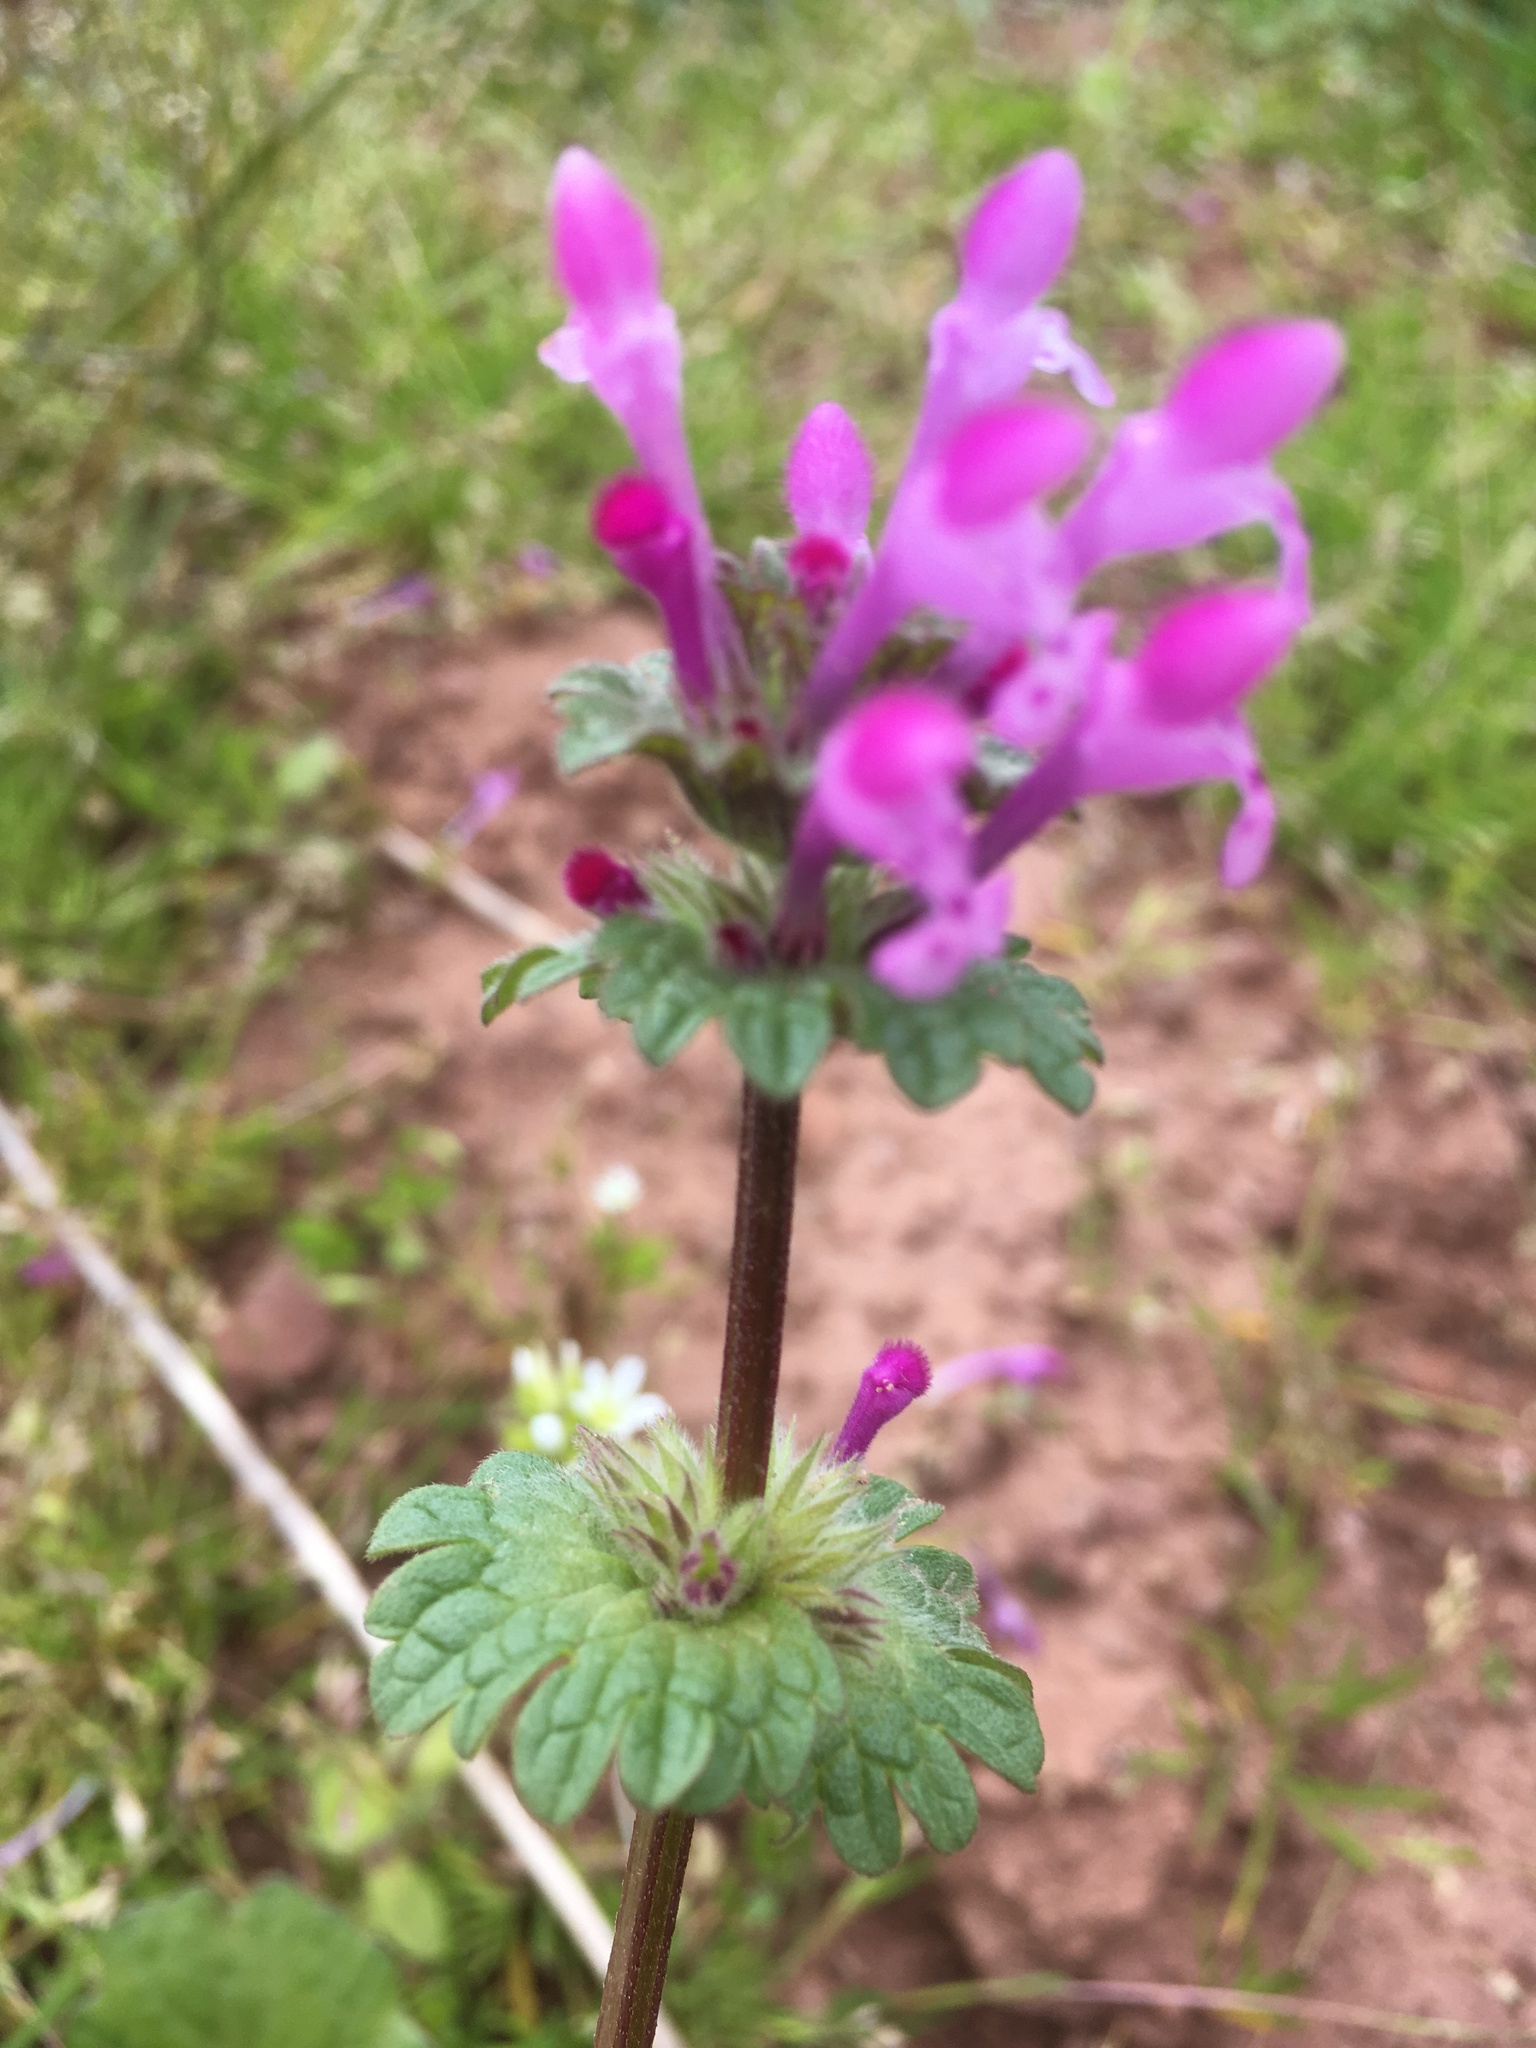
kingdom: Plantae
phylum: Tracheophyta
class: Magnoliopsida
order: Lamiales
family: Lamiaceae
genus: Lamium
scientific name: Lamium amplexicaule
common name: Henbit dead-nettle
